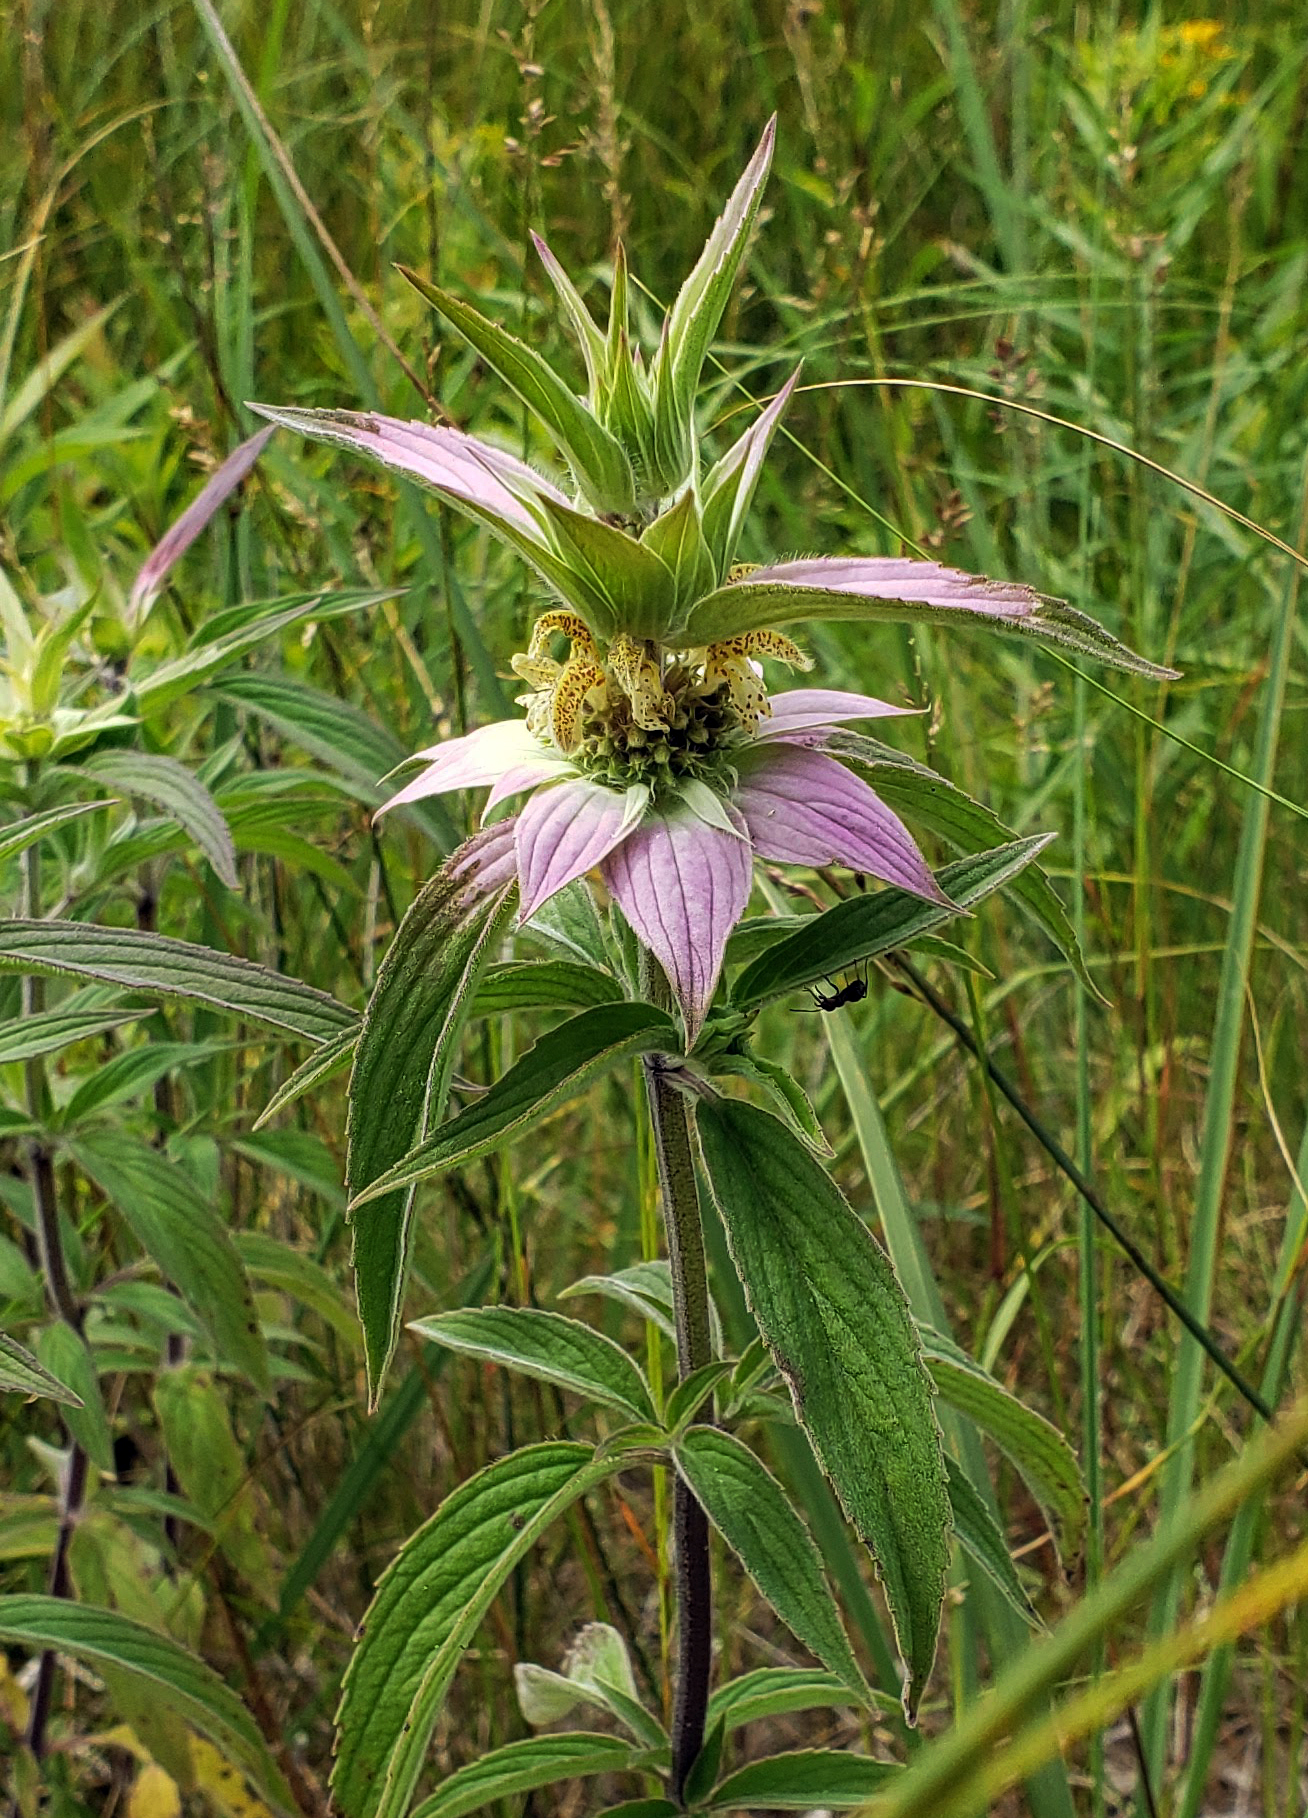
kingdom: Plantae
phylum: Tracheophyta
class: Magnoliopsida
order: Lamiales
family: Lamiaceae
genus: Monarda
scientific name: Monarda punctata
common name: Dotted monarda
